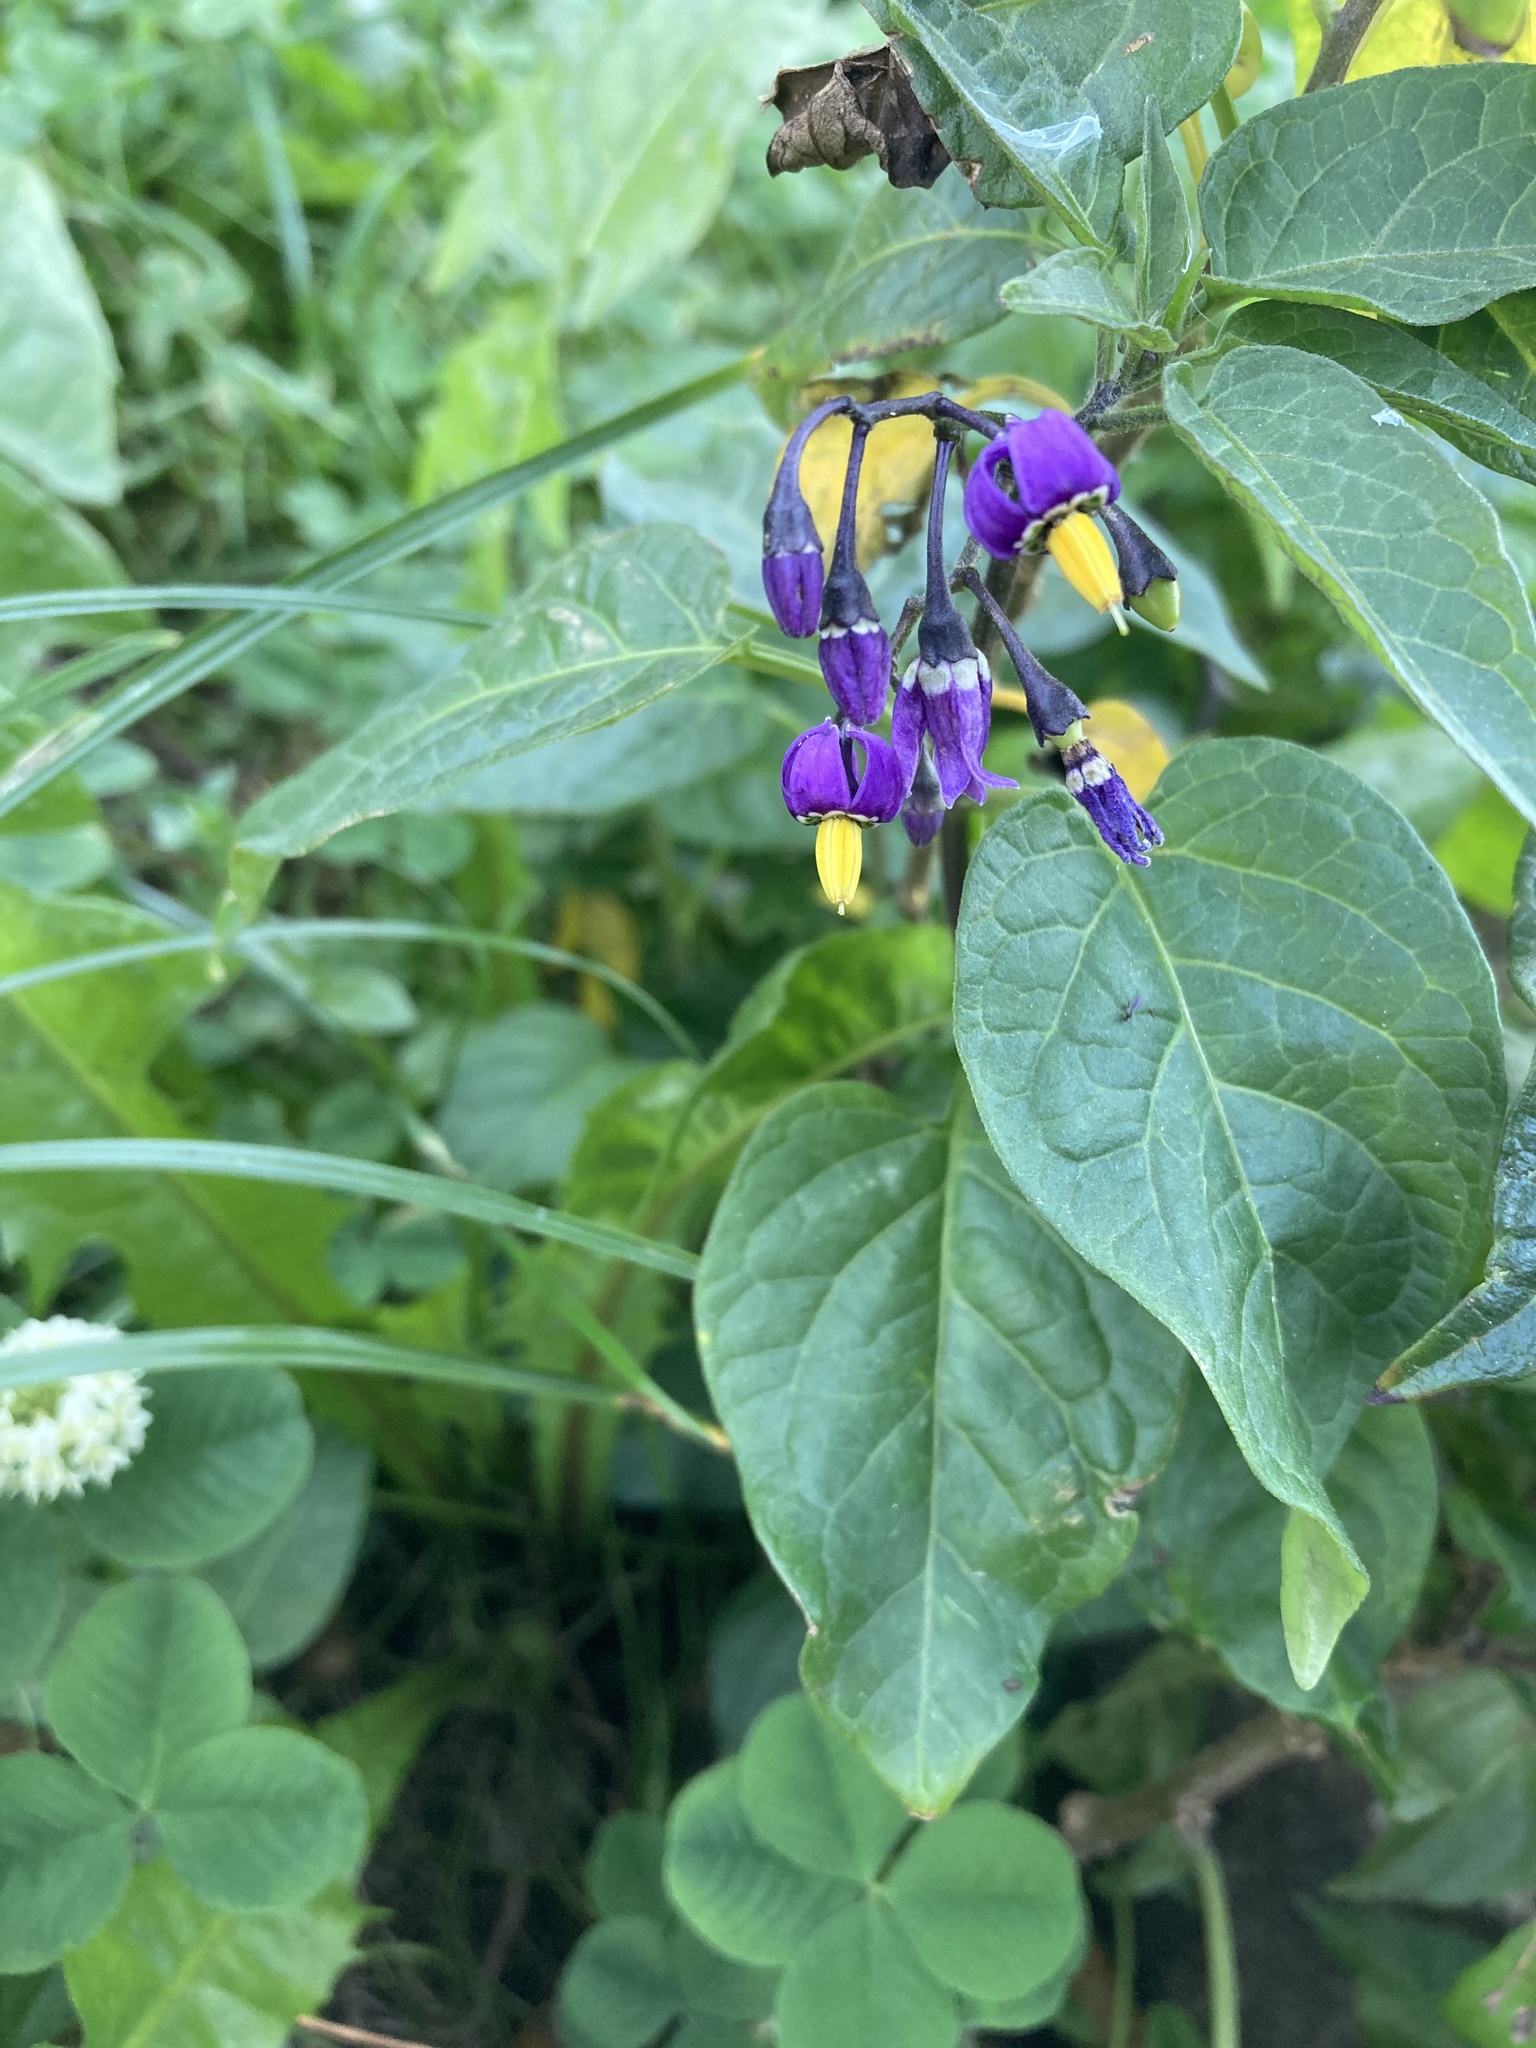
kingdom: Plantae
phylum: Tracheophyta
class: Magnoliopsida
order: Solanales
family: Solanaceae
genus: Solanum
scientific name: Solanum dulcamara
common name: Climbing nightshade
